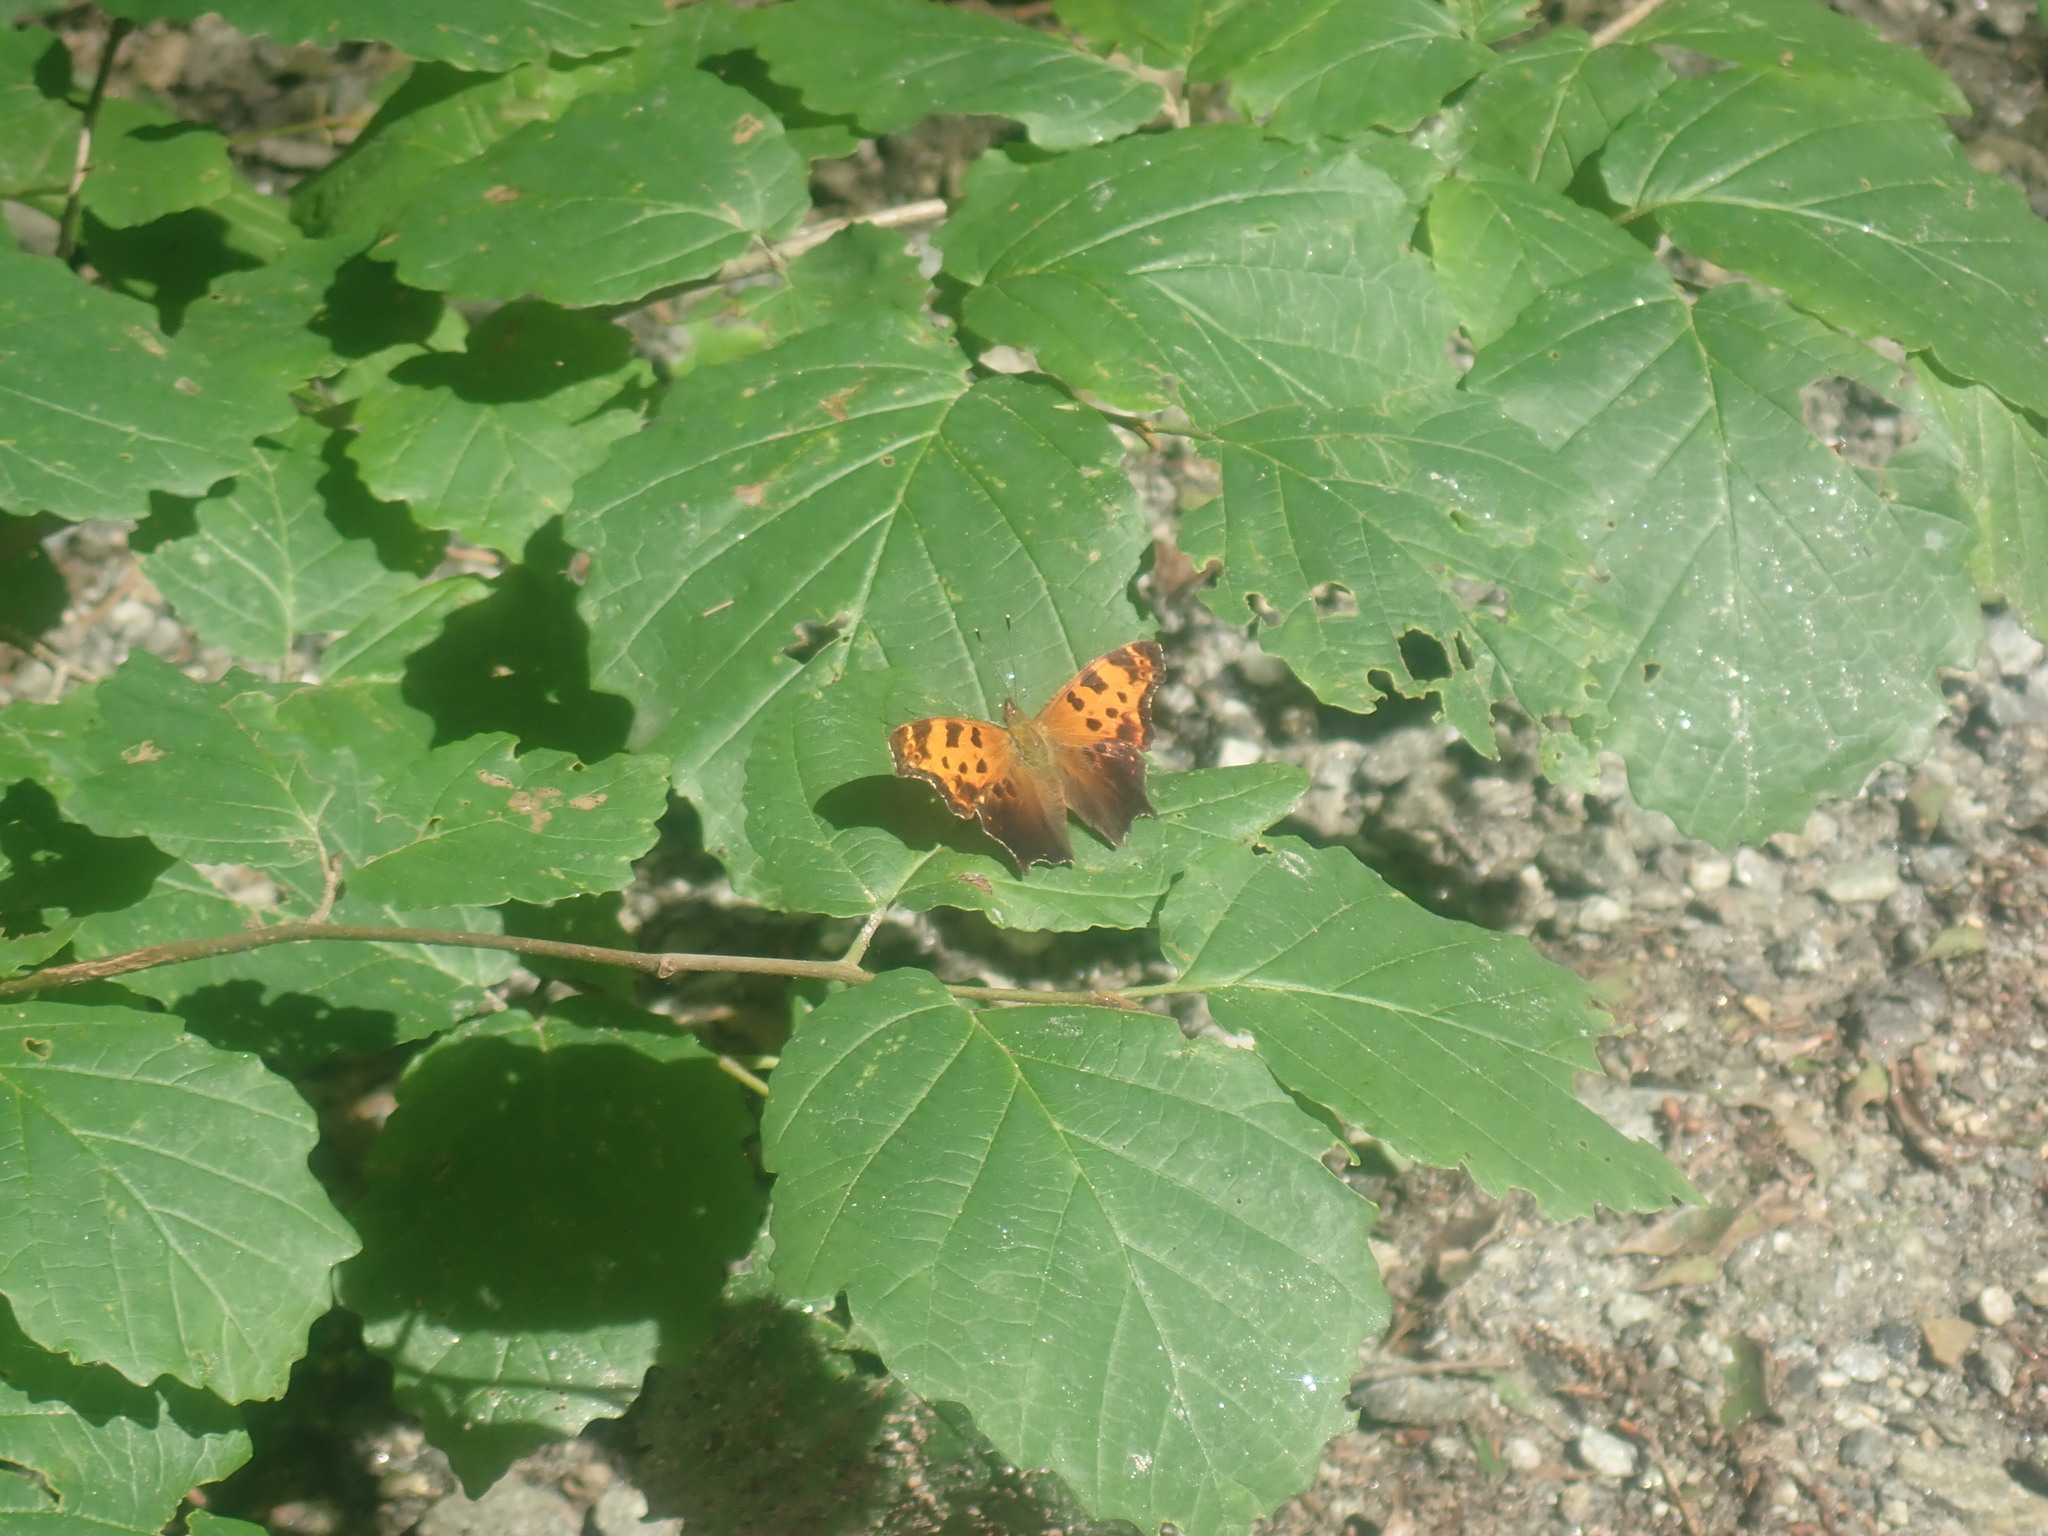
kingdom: Animalia
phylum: Arthropoda
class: Insecta
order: Lepidoptera
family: Nymphalidae
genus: Polygonia
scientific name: Polygonia comma
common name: Eastern comma
